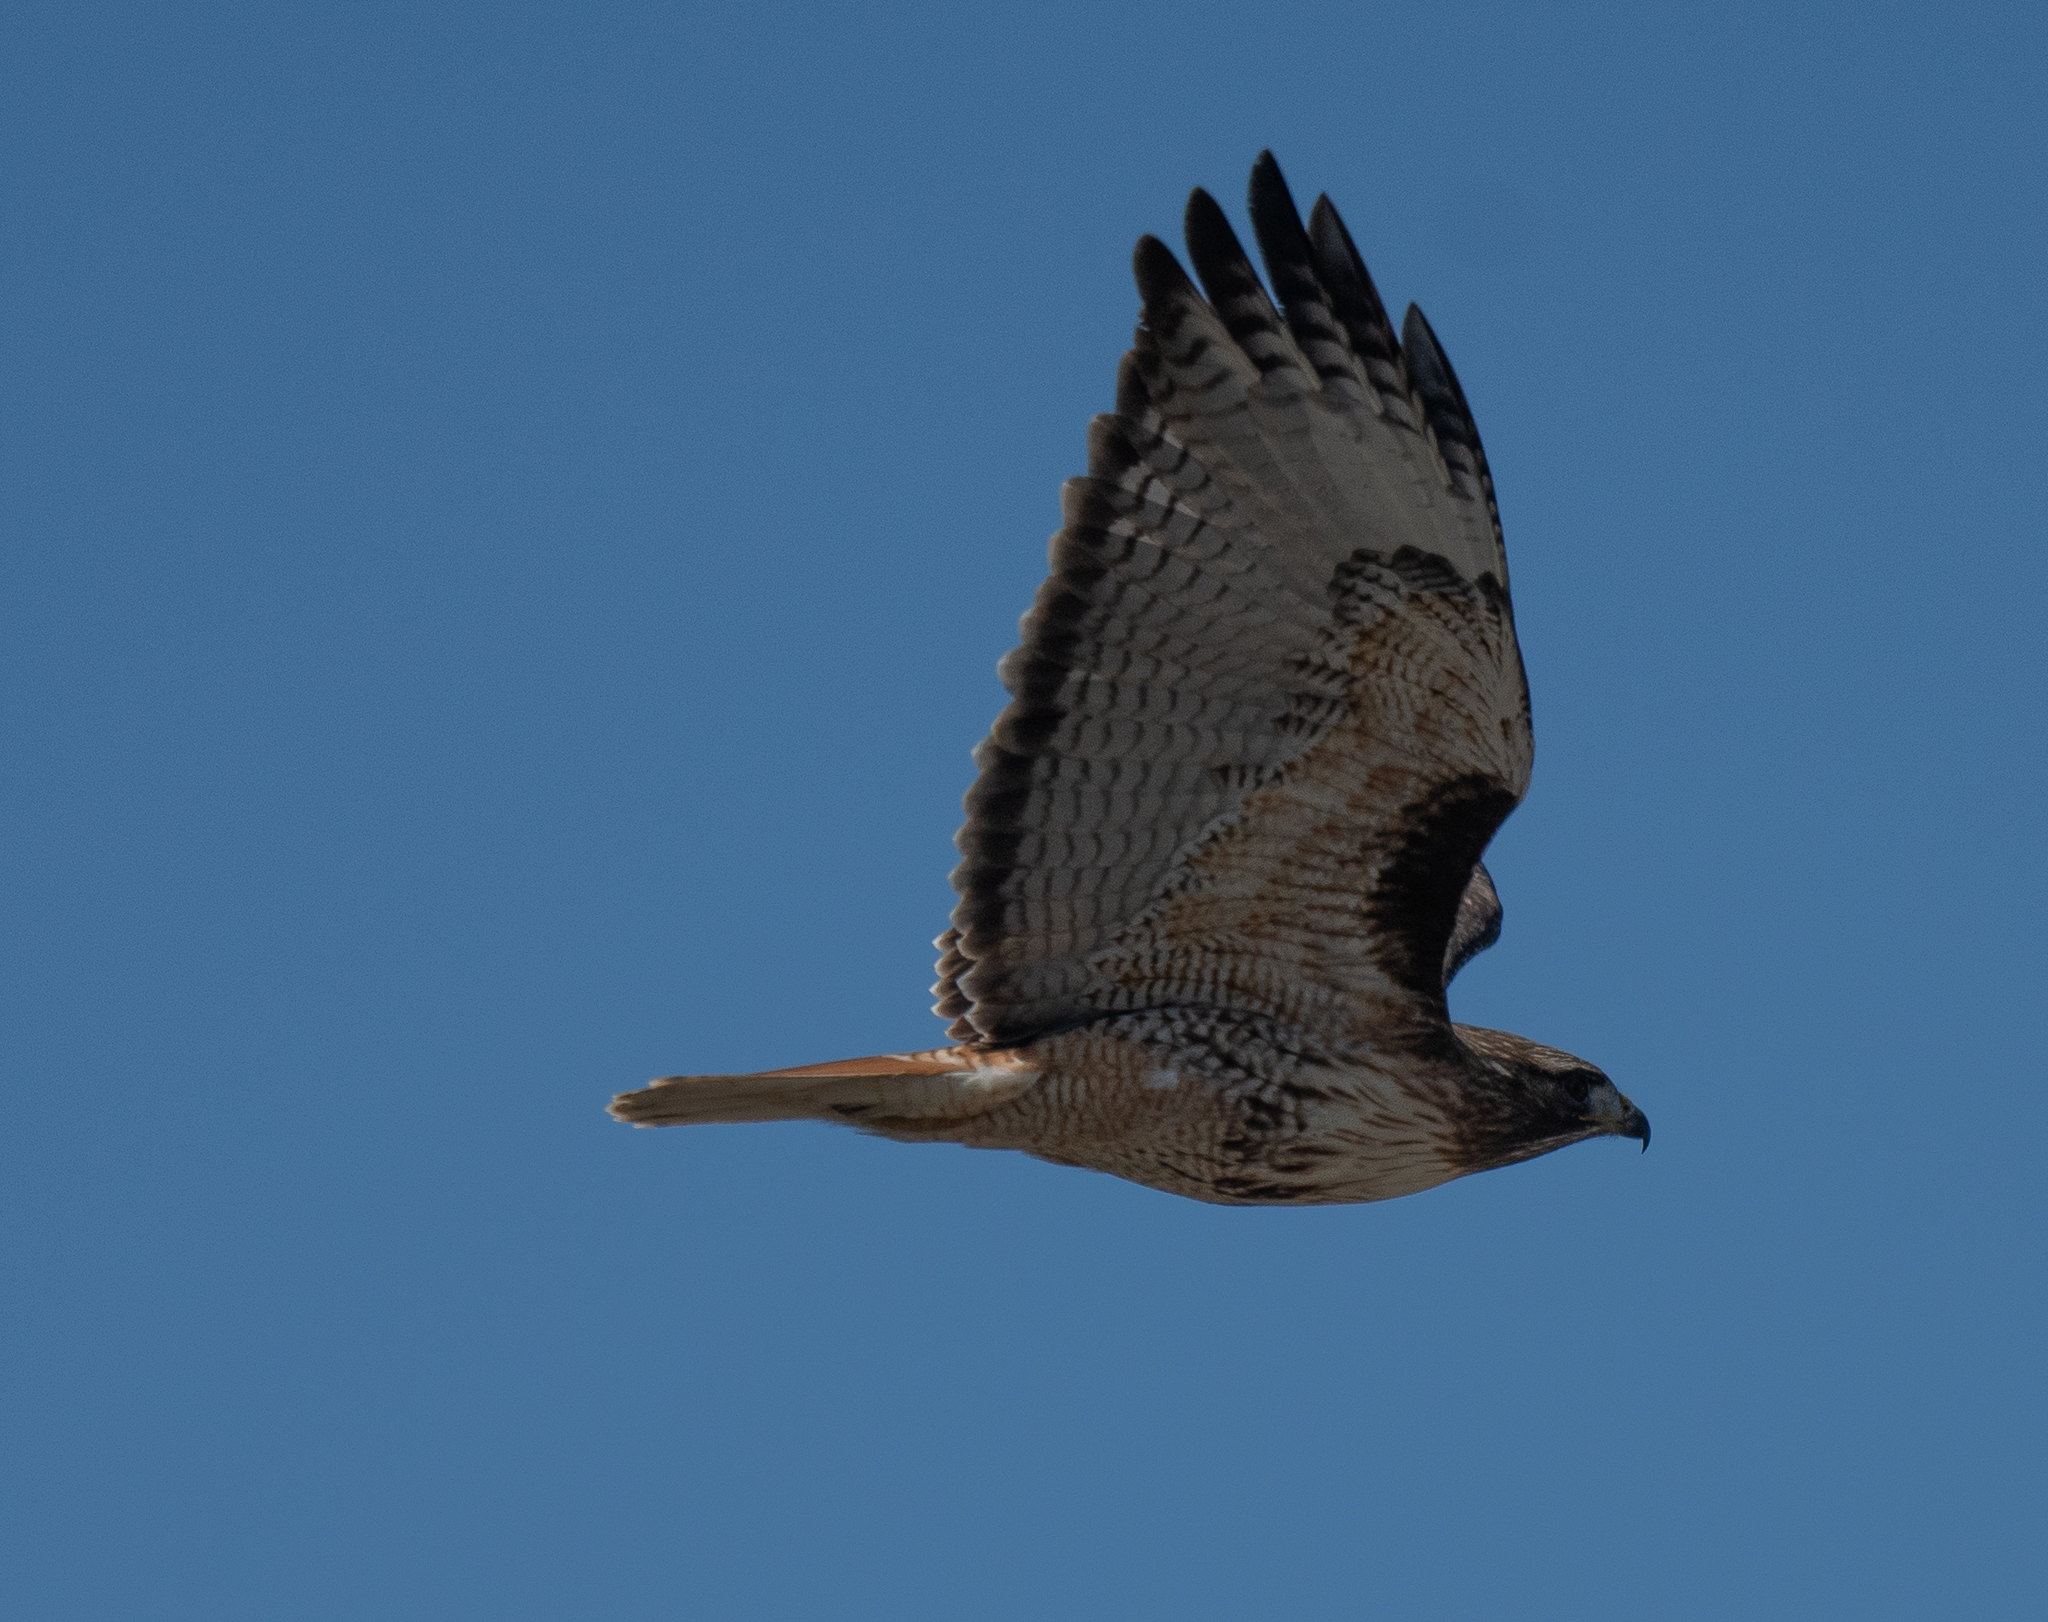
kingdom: Animalia
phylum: Chordata
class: Aves
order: Accipitriformes
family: Accipitridae
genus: Buteo
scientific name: Buteo jamaicensis
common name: Red-tailed hawk
